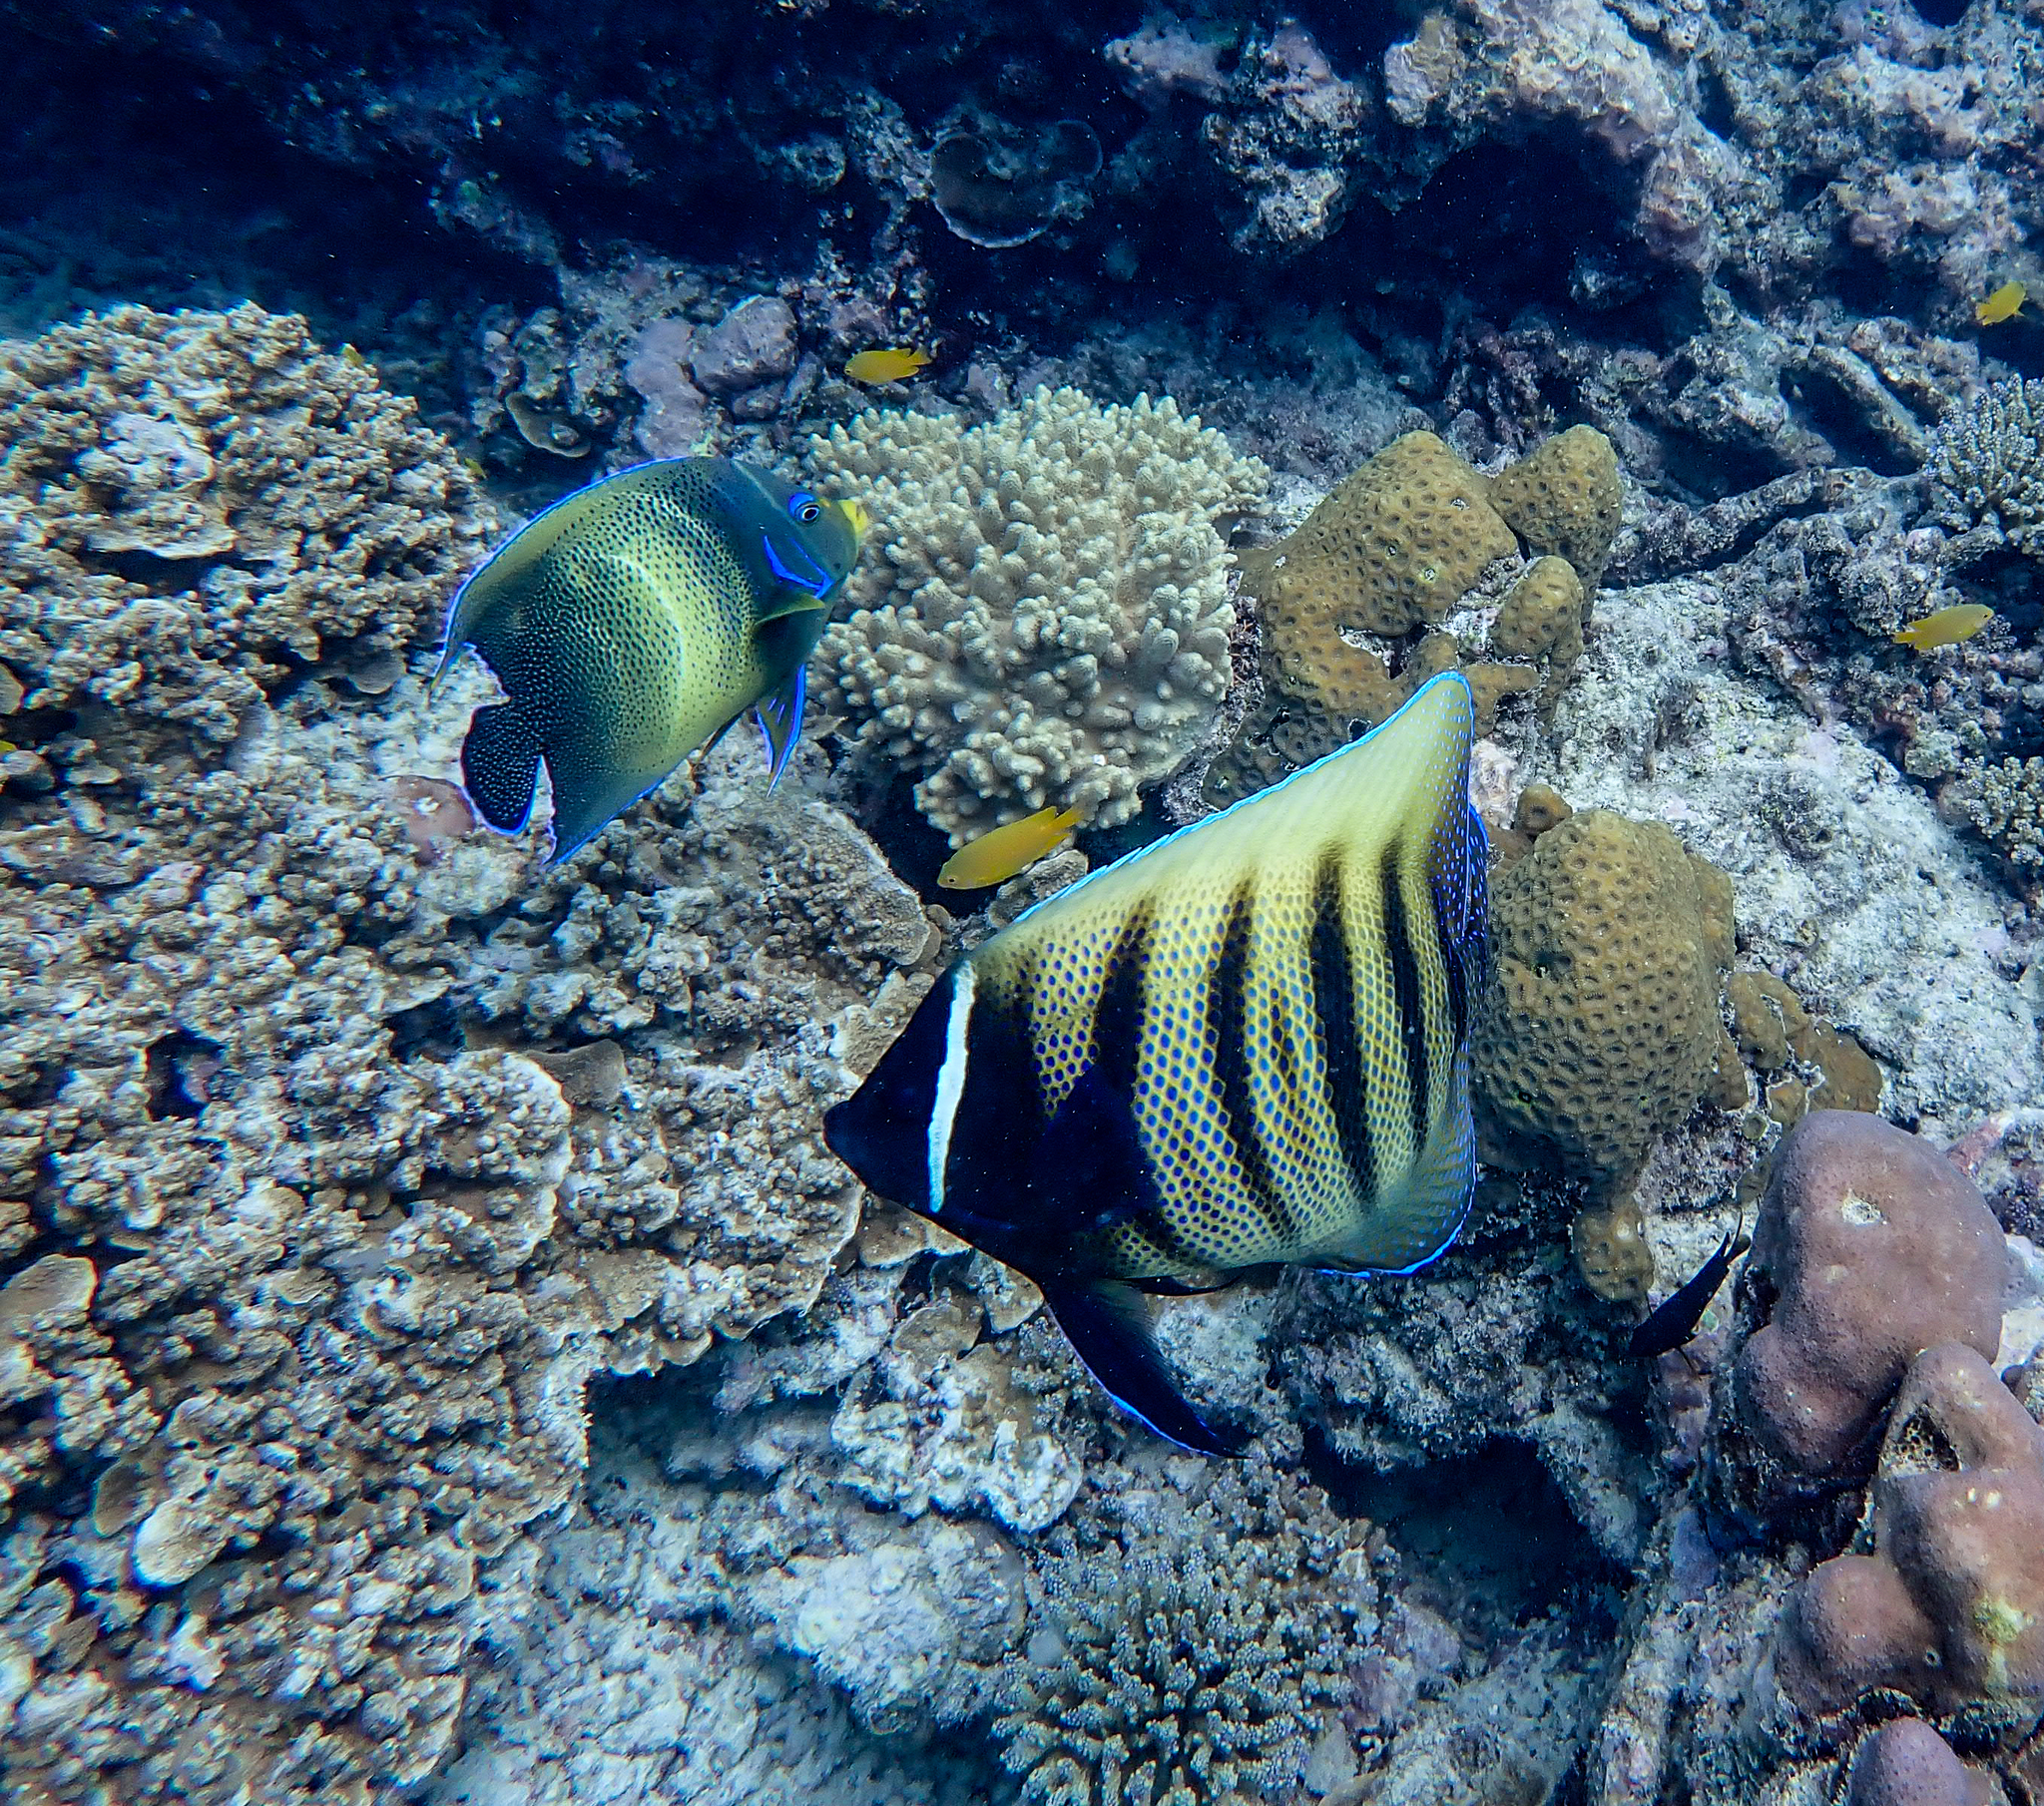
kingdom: Animalia
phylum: Chordata
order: Perciformes
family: Pomacanthidae
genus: Pomacanthus
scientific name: Pomacanthus sexstriatus
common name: Six-banded angelfish
